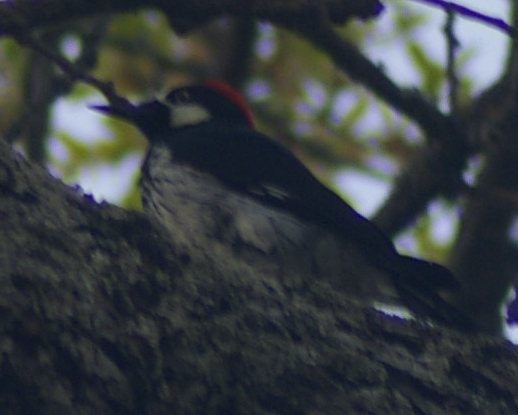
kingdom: Animalia
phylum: Chordata
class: Aves
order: Piciformes
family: Picidae
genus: Melanerpes
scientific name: Melanerpes formicivorus
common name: Acorn woodpecker
